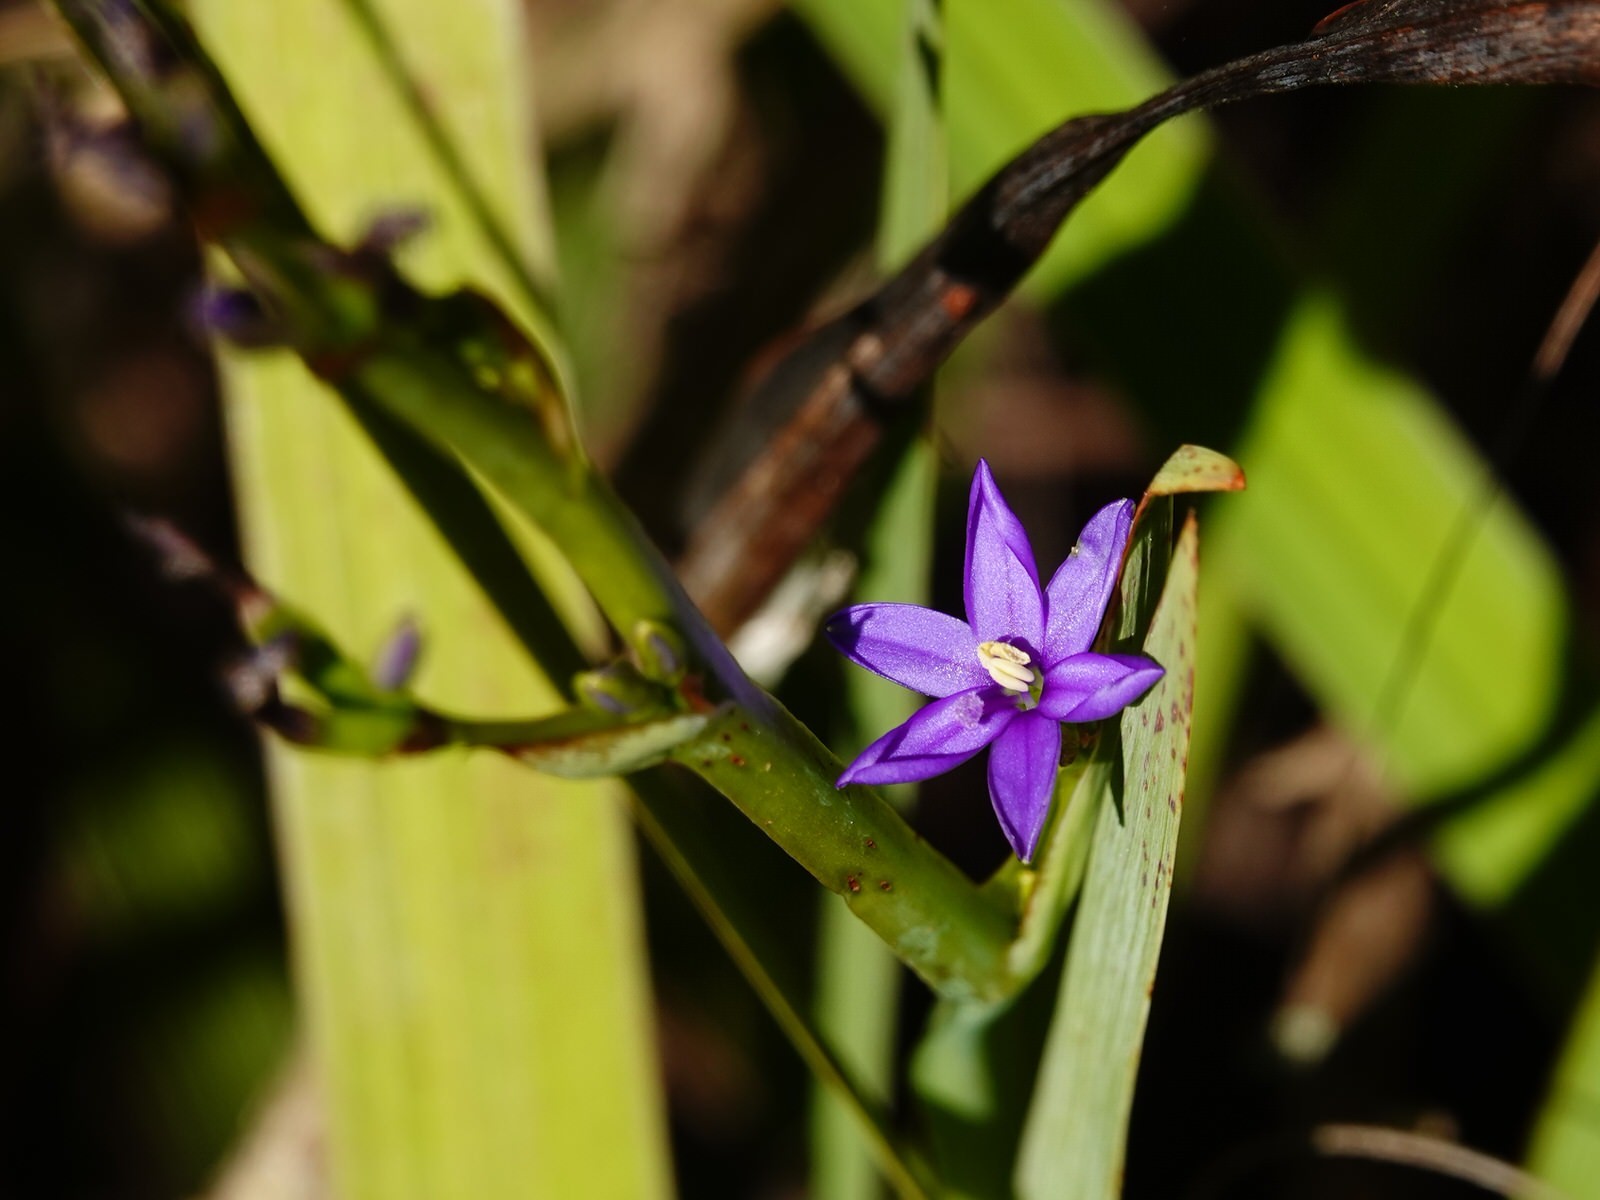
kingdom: Plantae
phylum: Tracheophyta
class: Liliopsida
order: Asparagales
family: Iridaceae
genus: Aristea
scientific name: Aristea ecklonii
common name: Blue corn-lily
